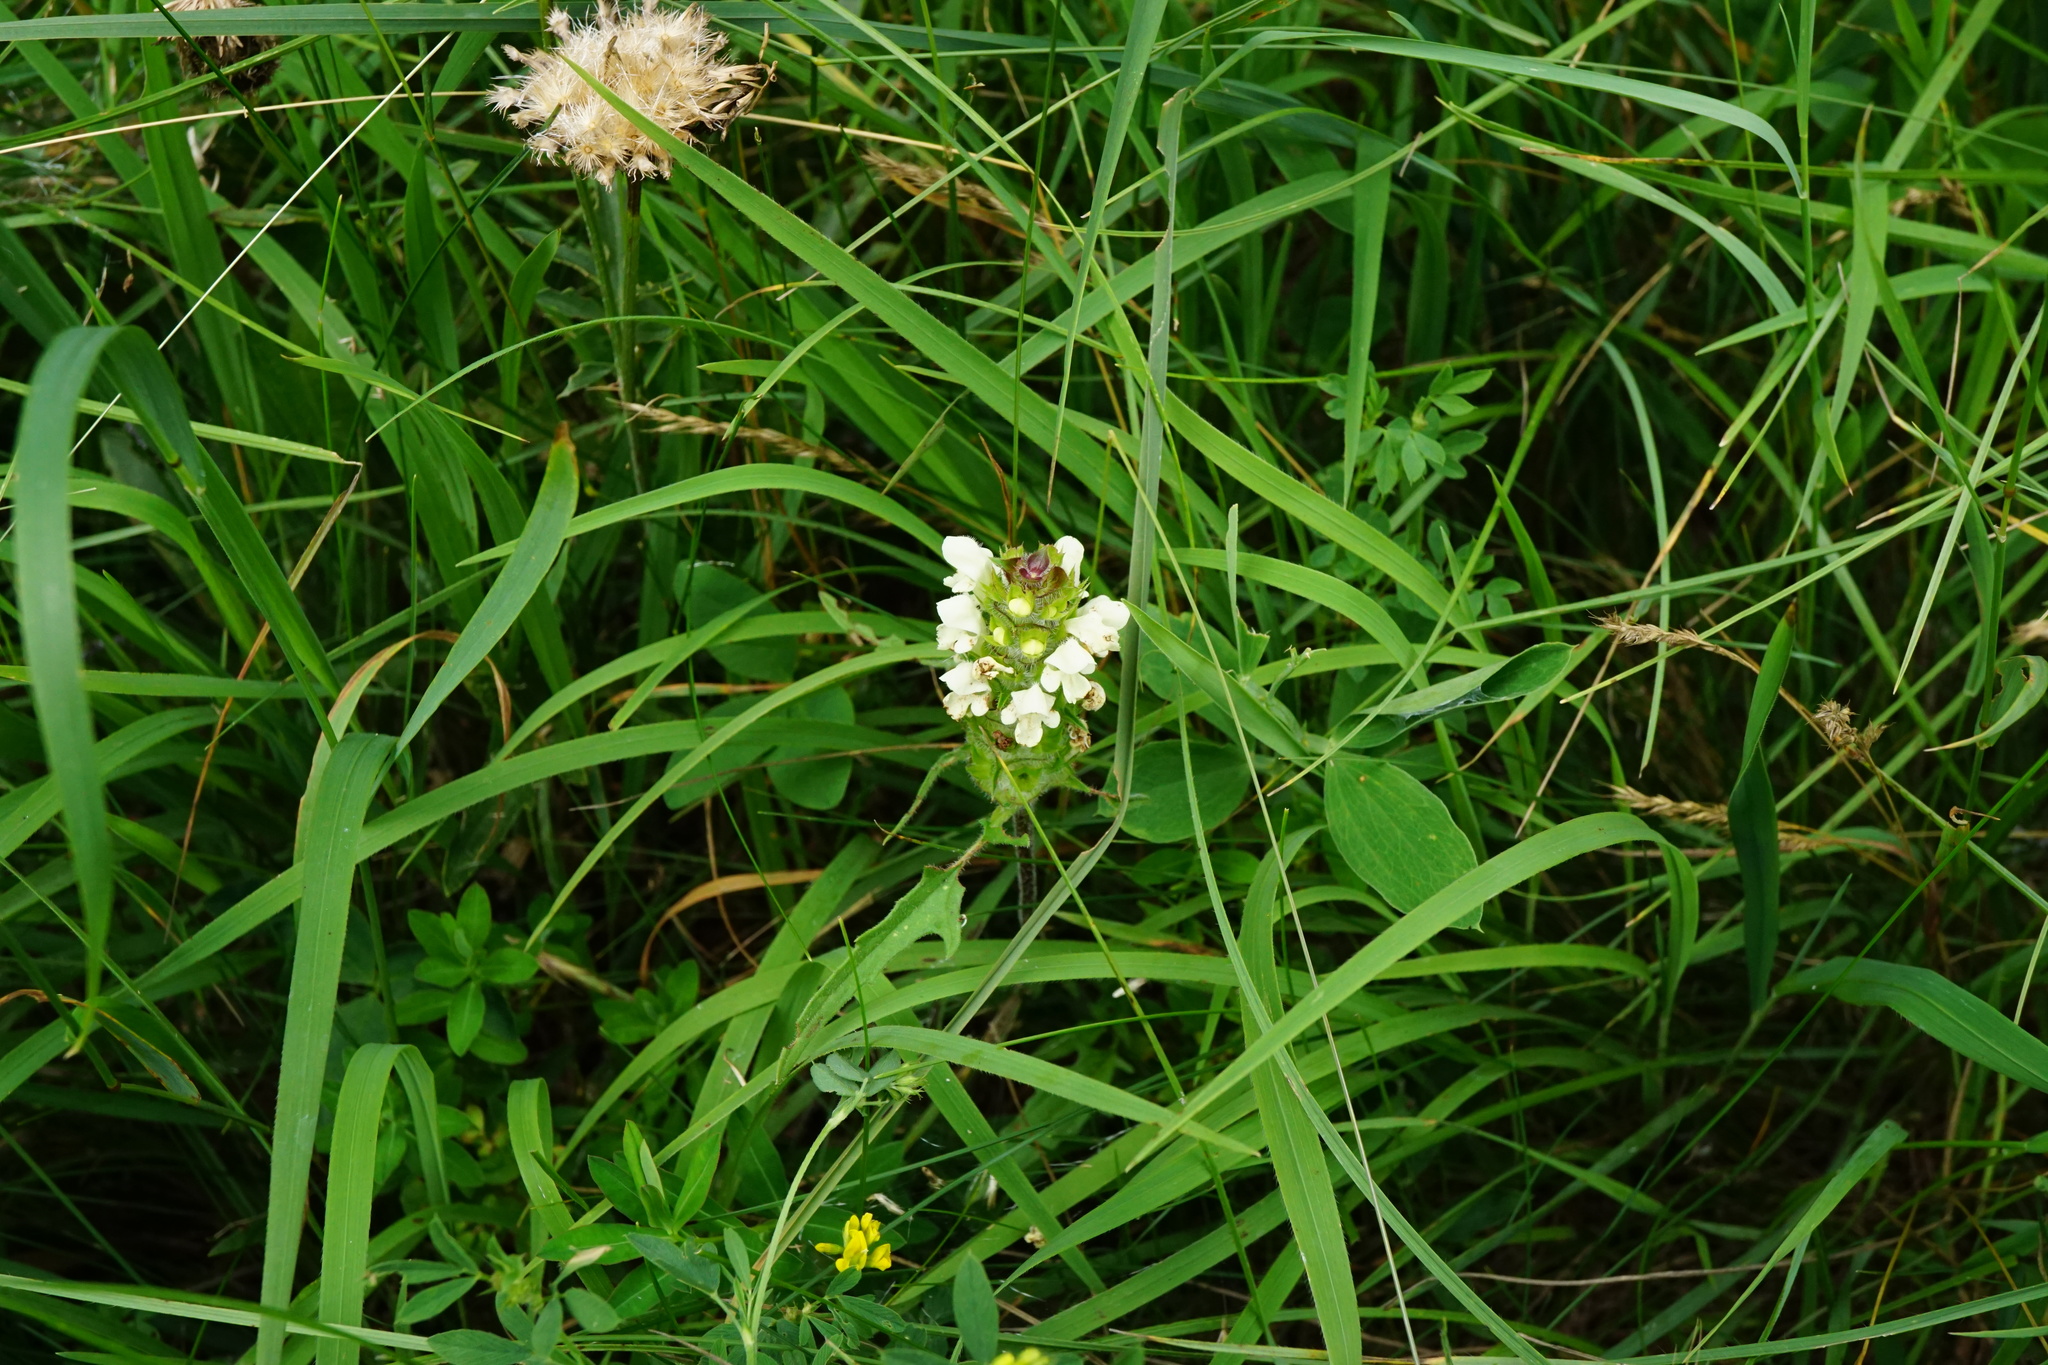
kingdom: Plantae
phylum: Tracheophyta
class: Magnoliopsida
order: Lamiales
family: Lamiaceae
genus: Prunella
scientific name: Prunella laciniata
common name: Cut-leaved selfheal
